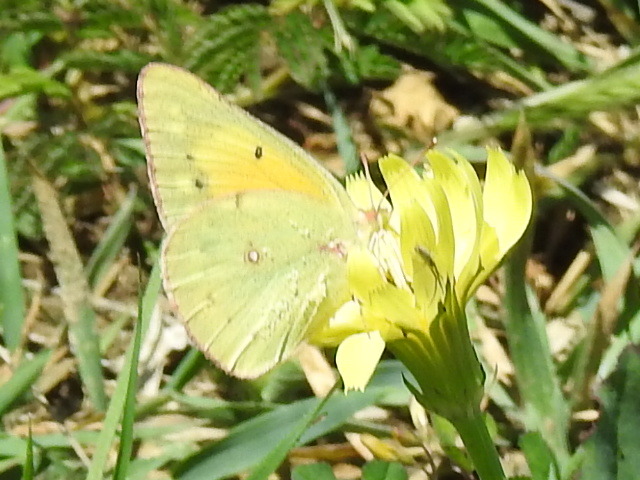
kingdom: Animalia
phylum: Arthropoda
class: Insecta
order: Lepidoptera
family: Pieridae
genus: Colias
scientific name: Colias eurytheme
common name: Alfalfa butterfly
